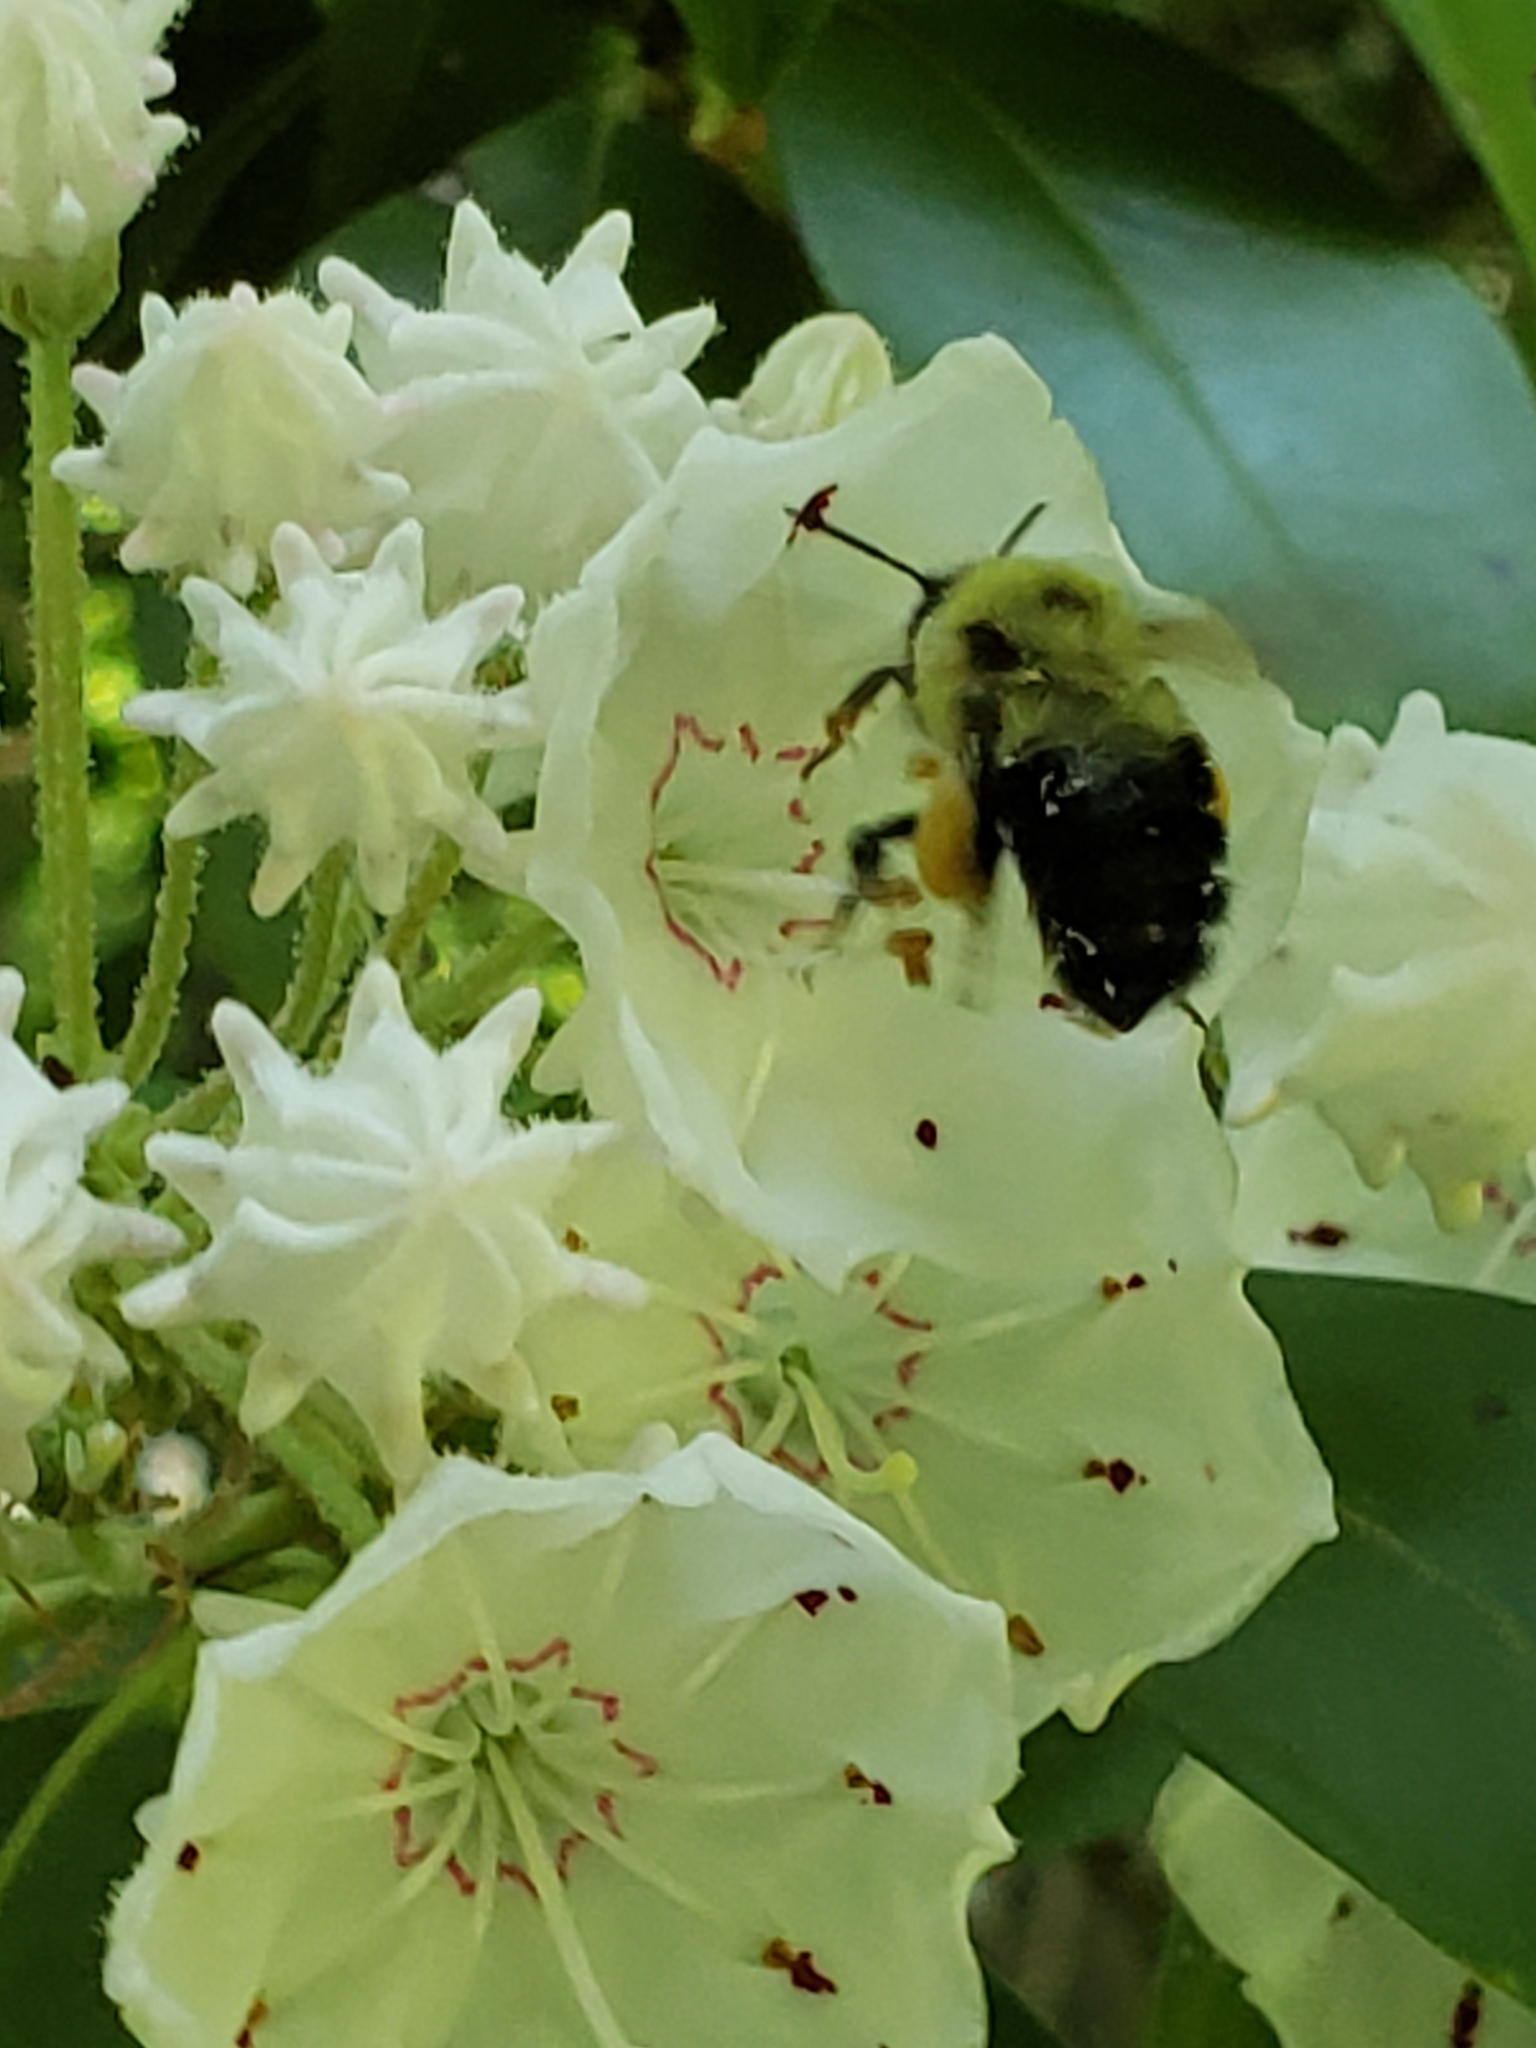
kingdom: Animalia
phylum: Arthropoda
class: Insecta
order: Hymenoptera
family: Apidae
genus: Bombus
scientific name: Bombus bimaculatus
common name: Two-spotted bumble bee
